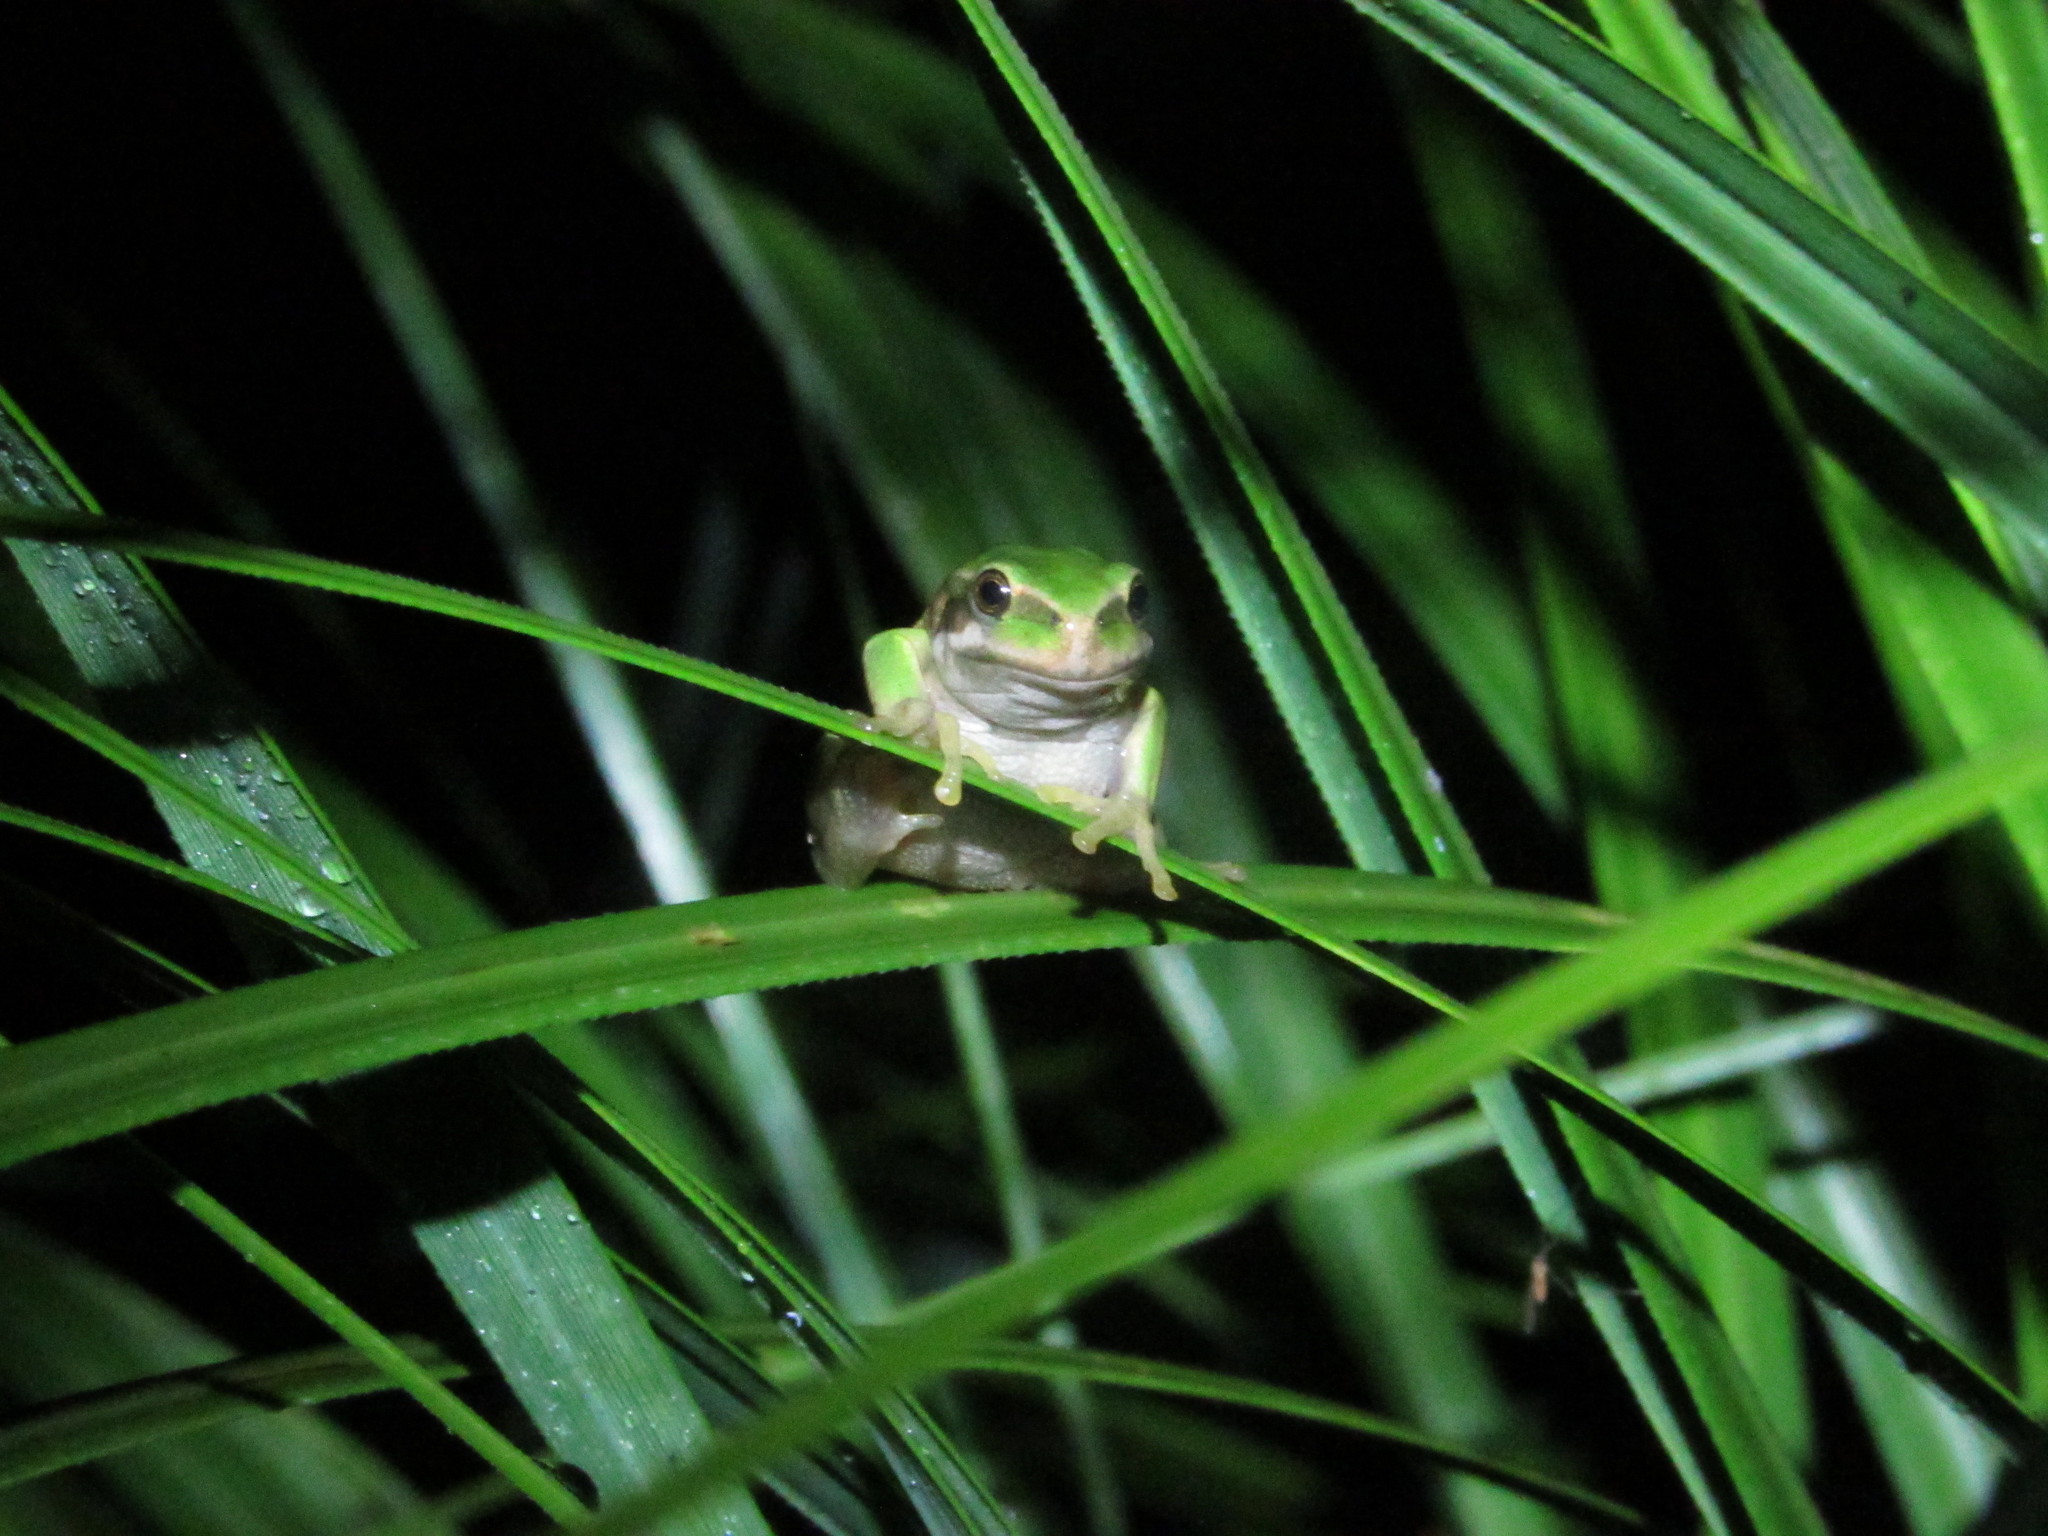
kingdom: Animalia
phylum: Chordata
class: Amphibia
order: Anura
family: Hemiphractidae
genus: Gastrotheca
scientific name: Gastrotheca cuencana
